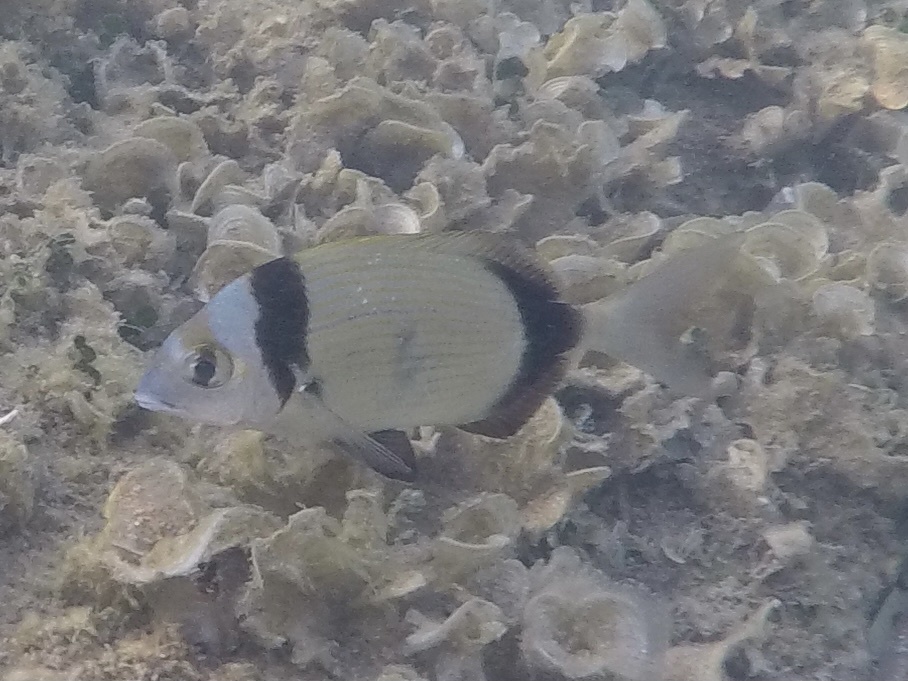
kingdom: Animalia
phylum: Chordata
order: Perciformes
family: Sparidae
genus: Diplodus
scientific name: Diplodus vulgaris
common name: Common two-banded seabream
